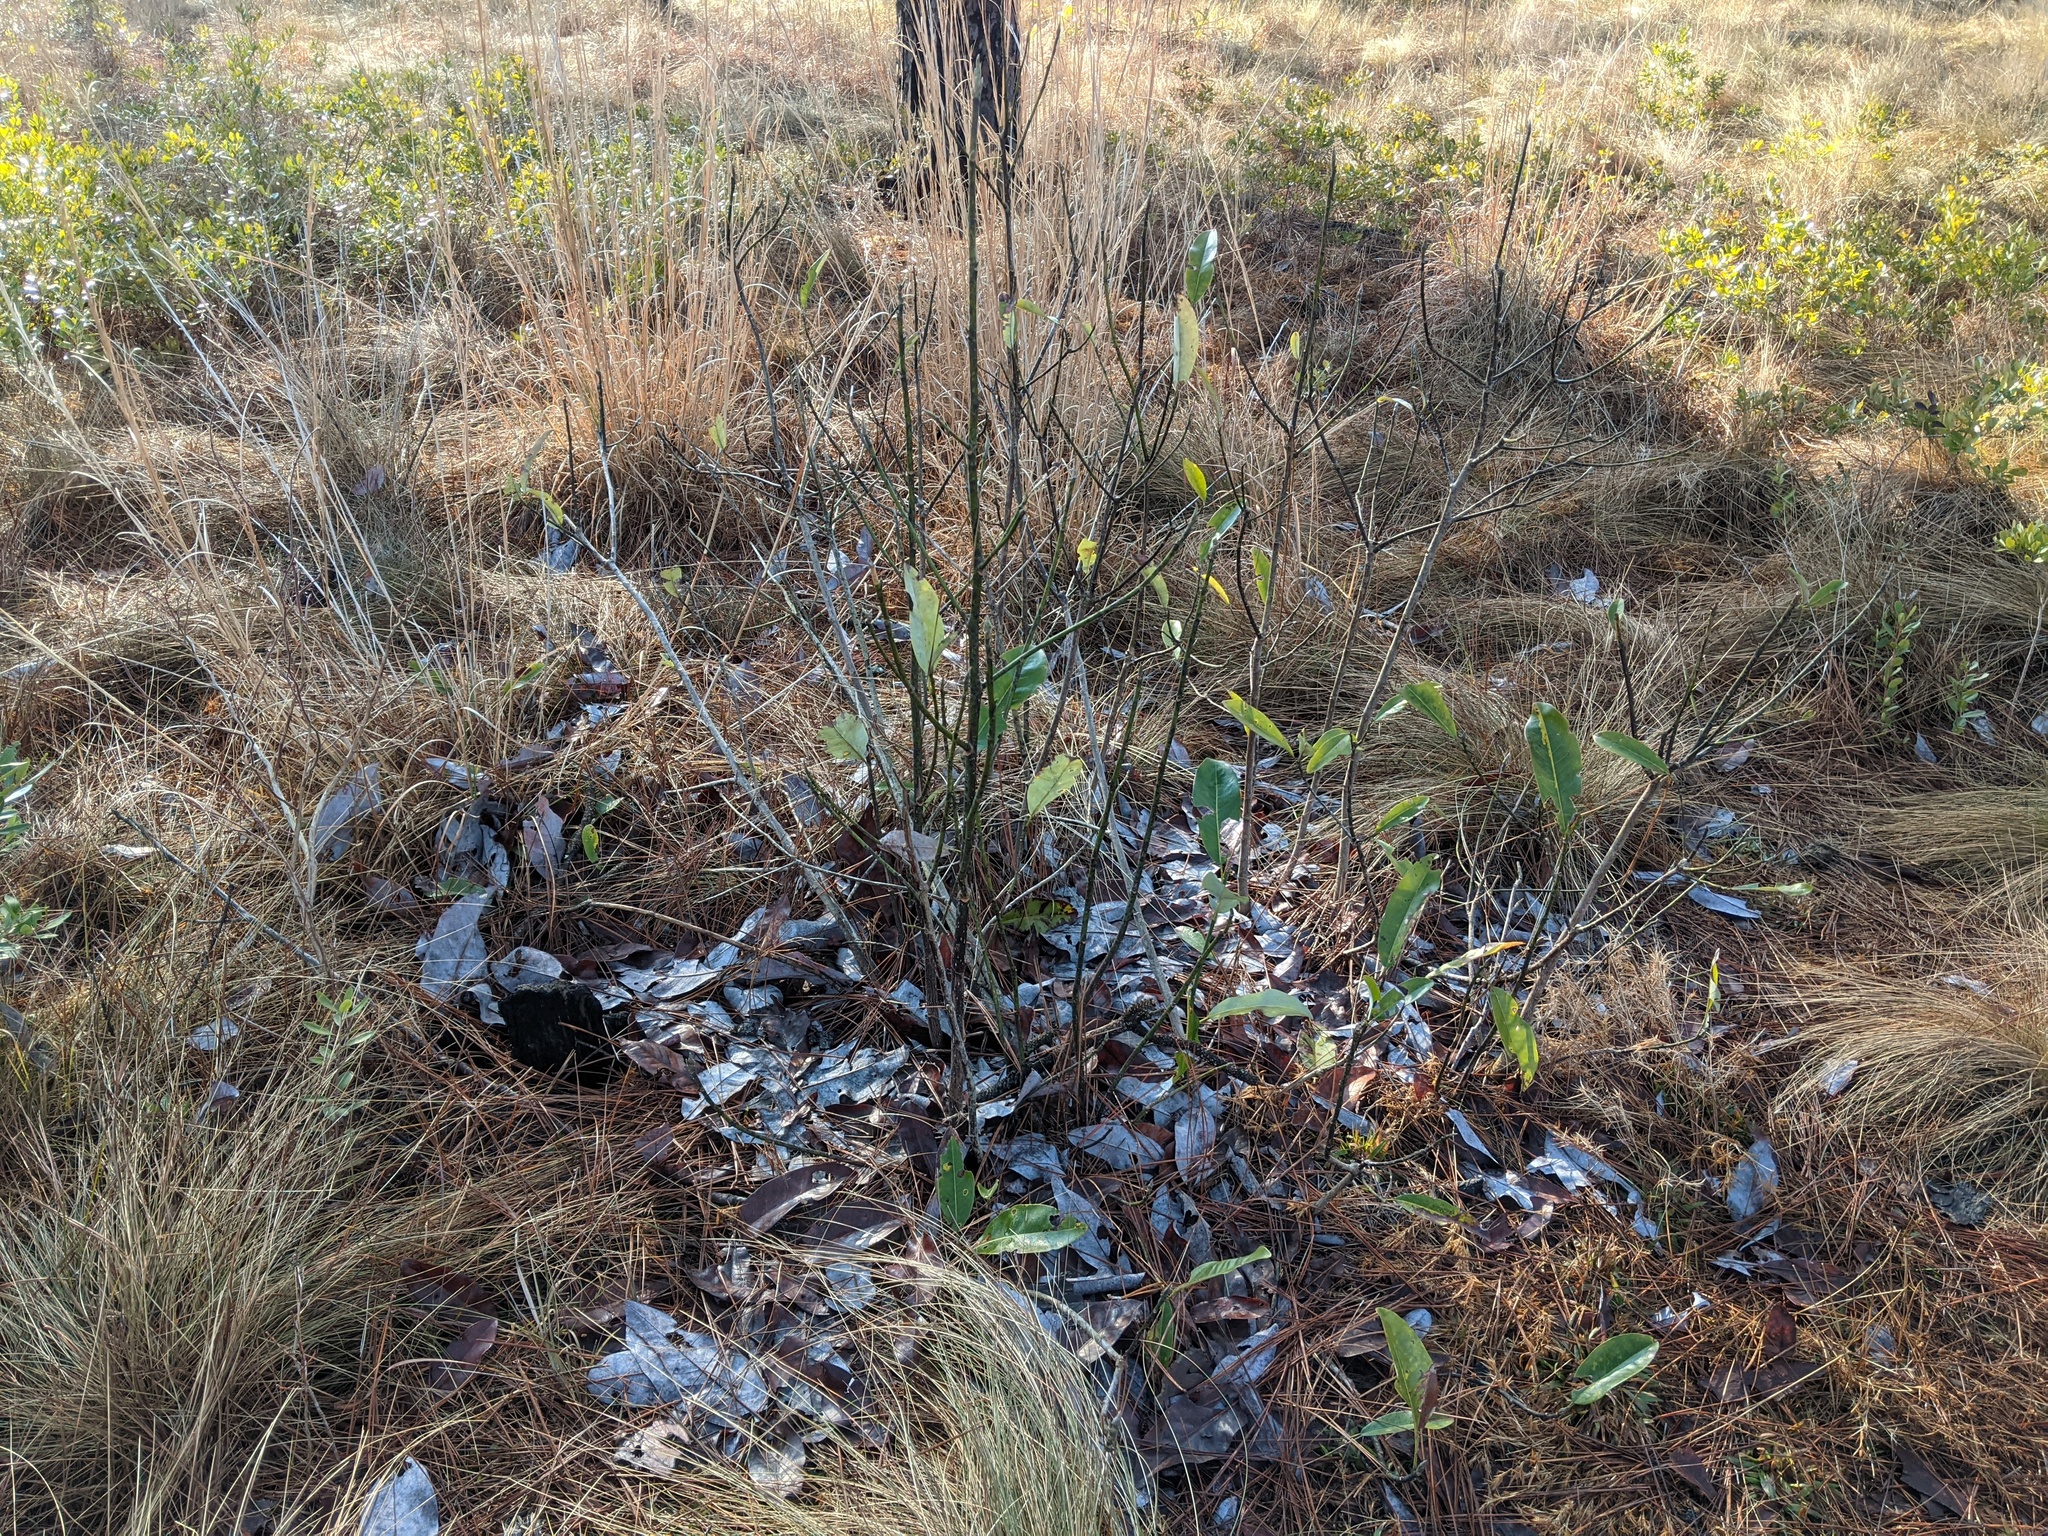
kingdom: Plantae
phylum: Tracheophyta
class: Magnoliopsida
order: Magnoliales
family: Magnoliaceae
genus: Magnolia
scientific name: Magnolia virginiana
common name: Swamp bay
